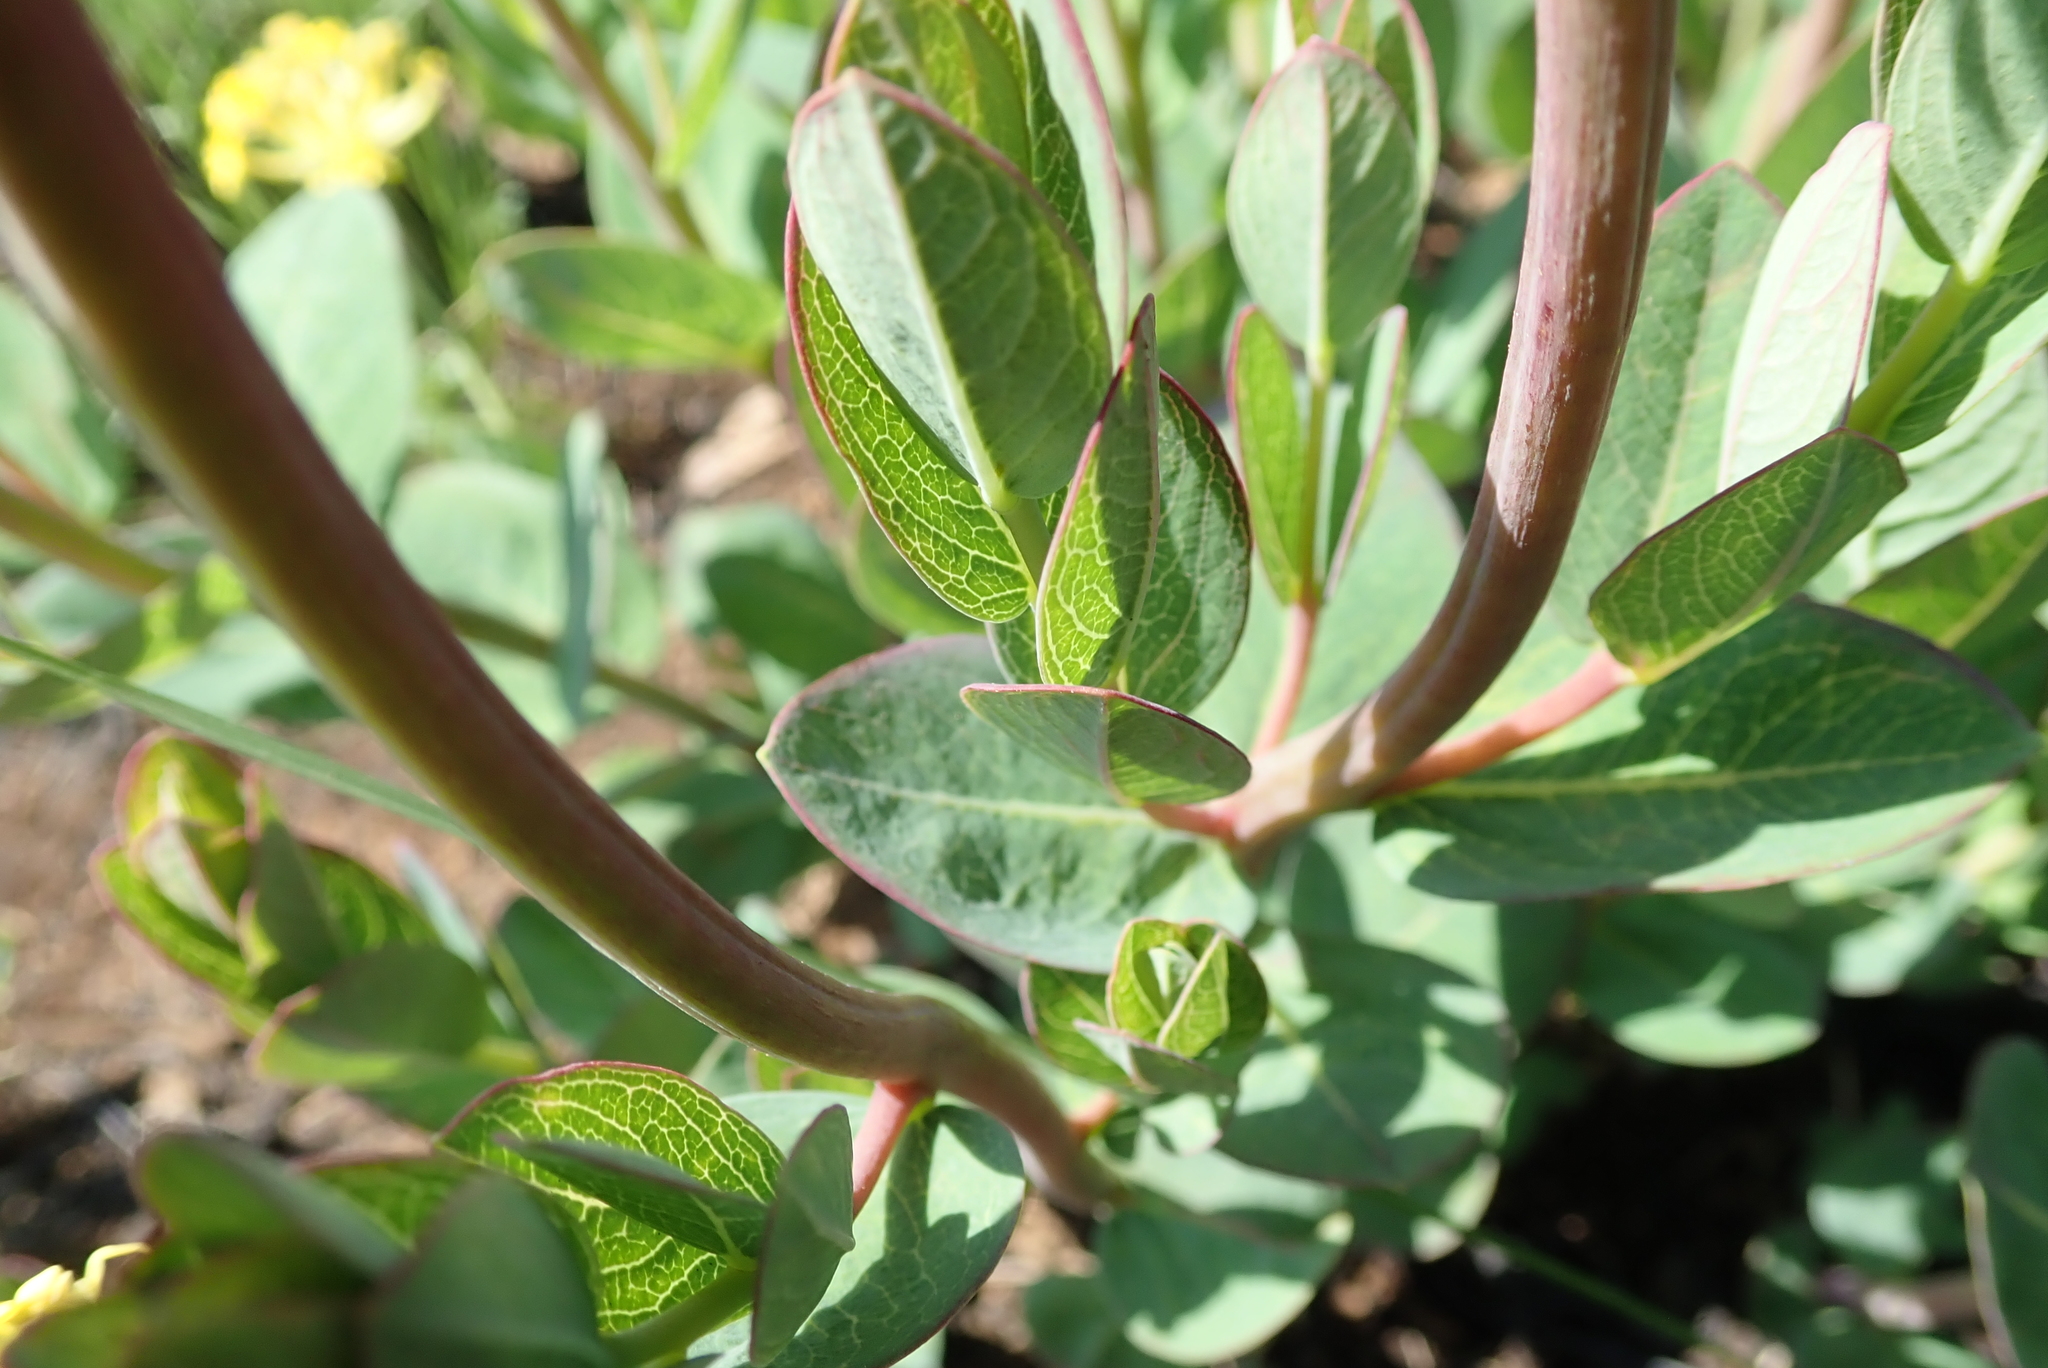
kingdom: Plantae
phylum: Tracheophyta
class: Magnoliopsida
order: Malvales
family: Thymelaeaceae
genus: Gnidia
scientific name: Gnidia kraussiana
